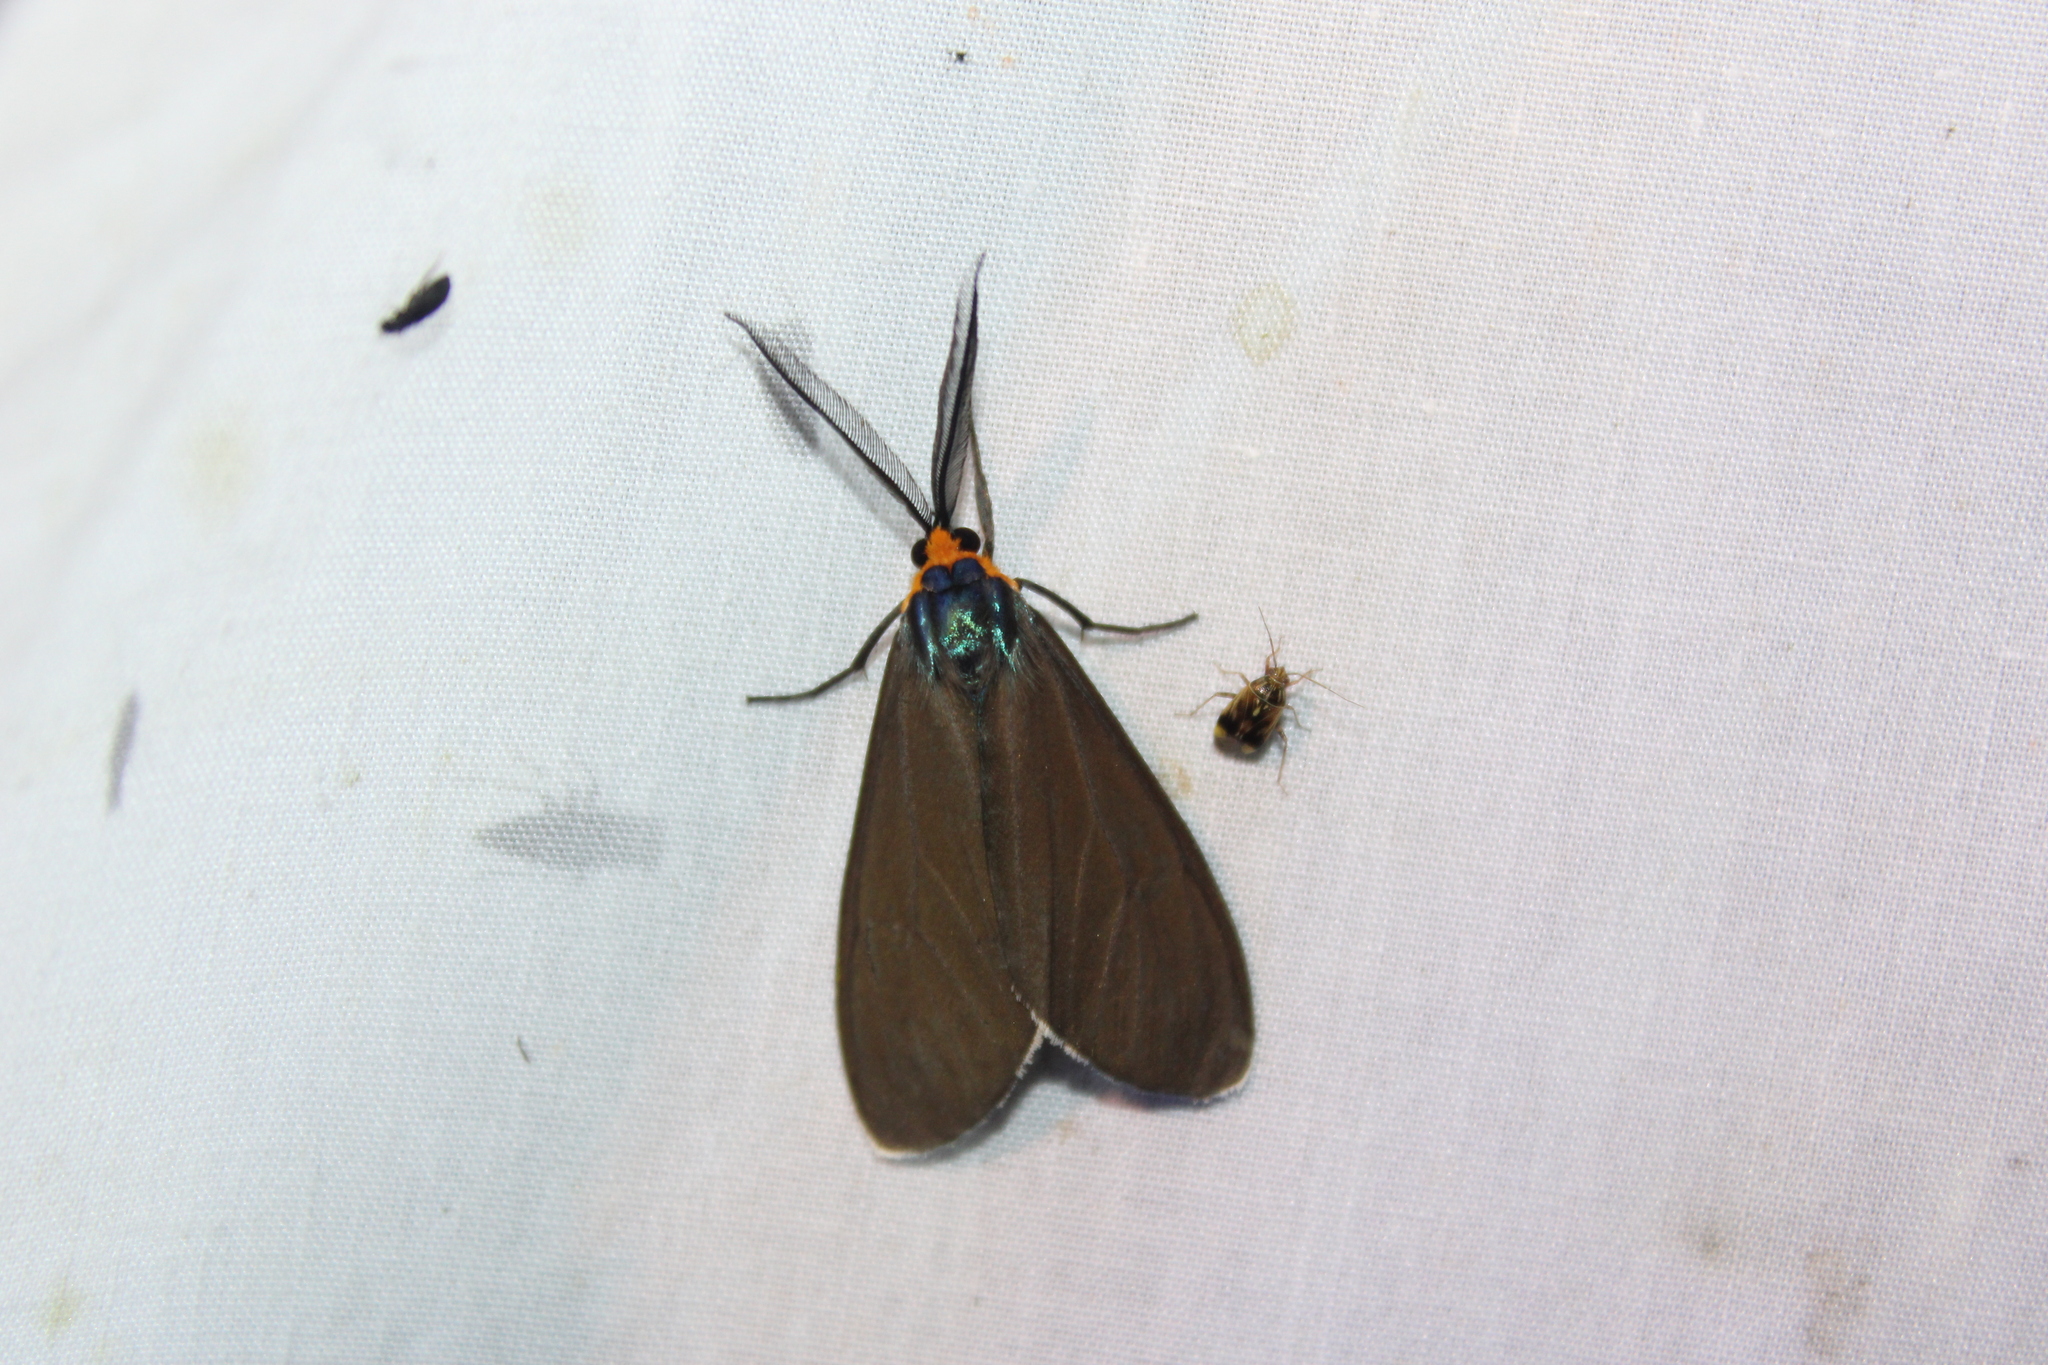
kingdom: Animalia
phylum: Arthropoda
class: Insecta
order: Lepidoptera
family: Erebidae
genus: Ctenucha
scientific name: Ctenucha virginica
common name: Virginia ctenucha moth
